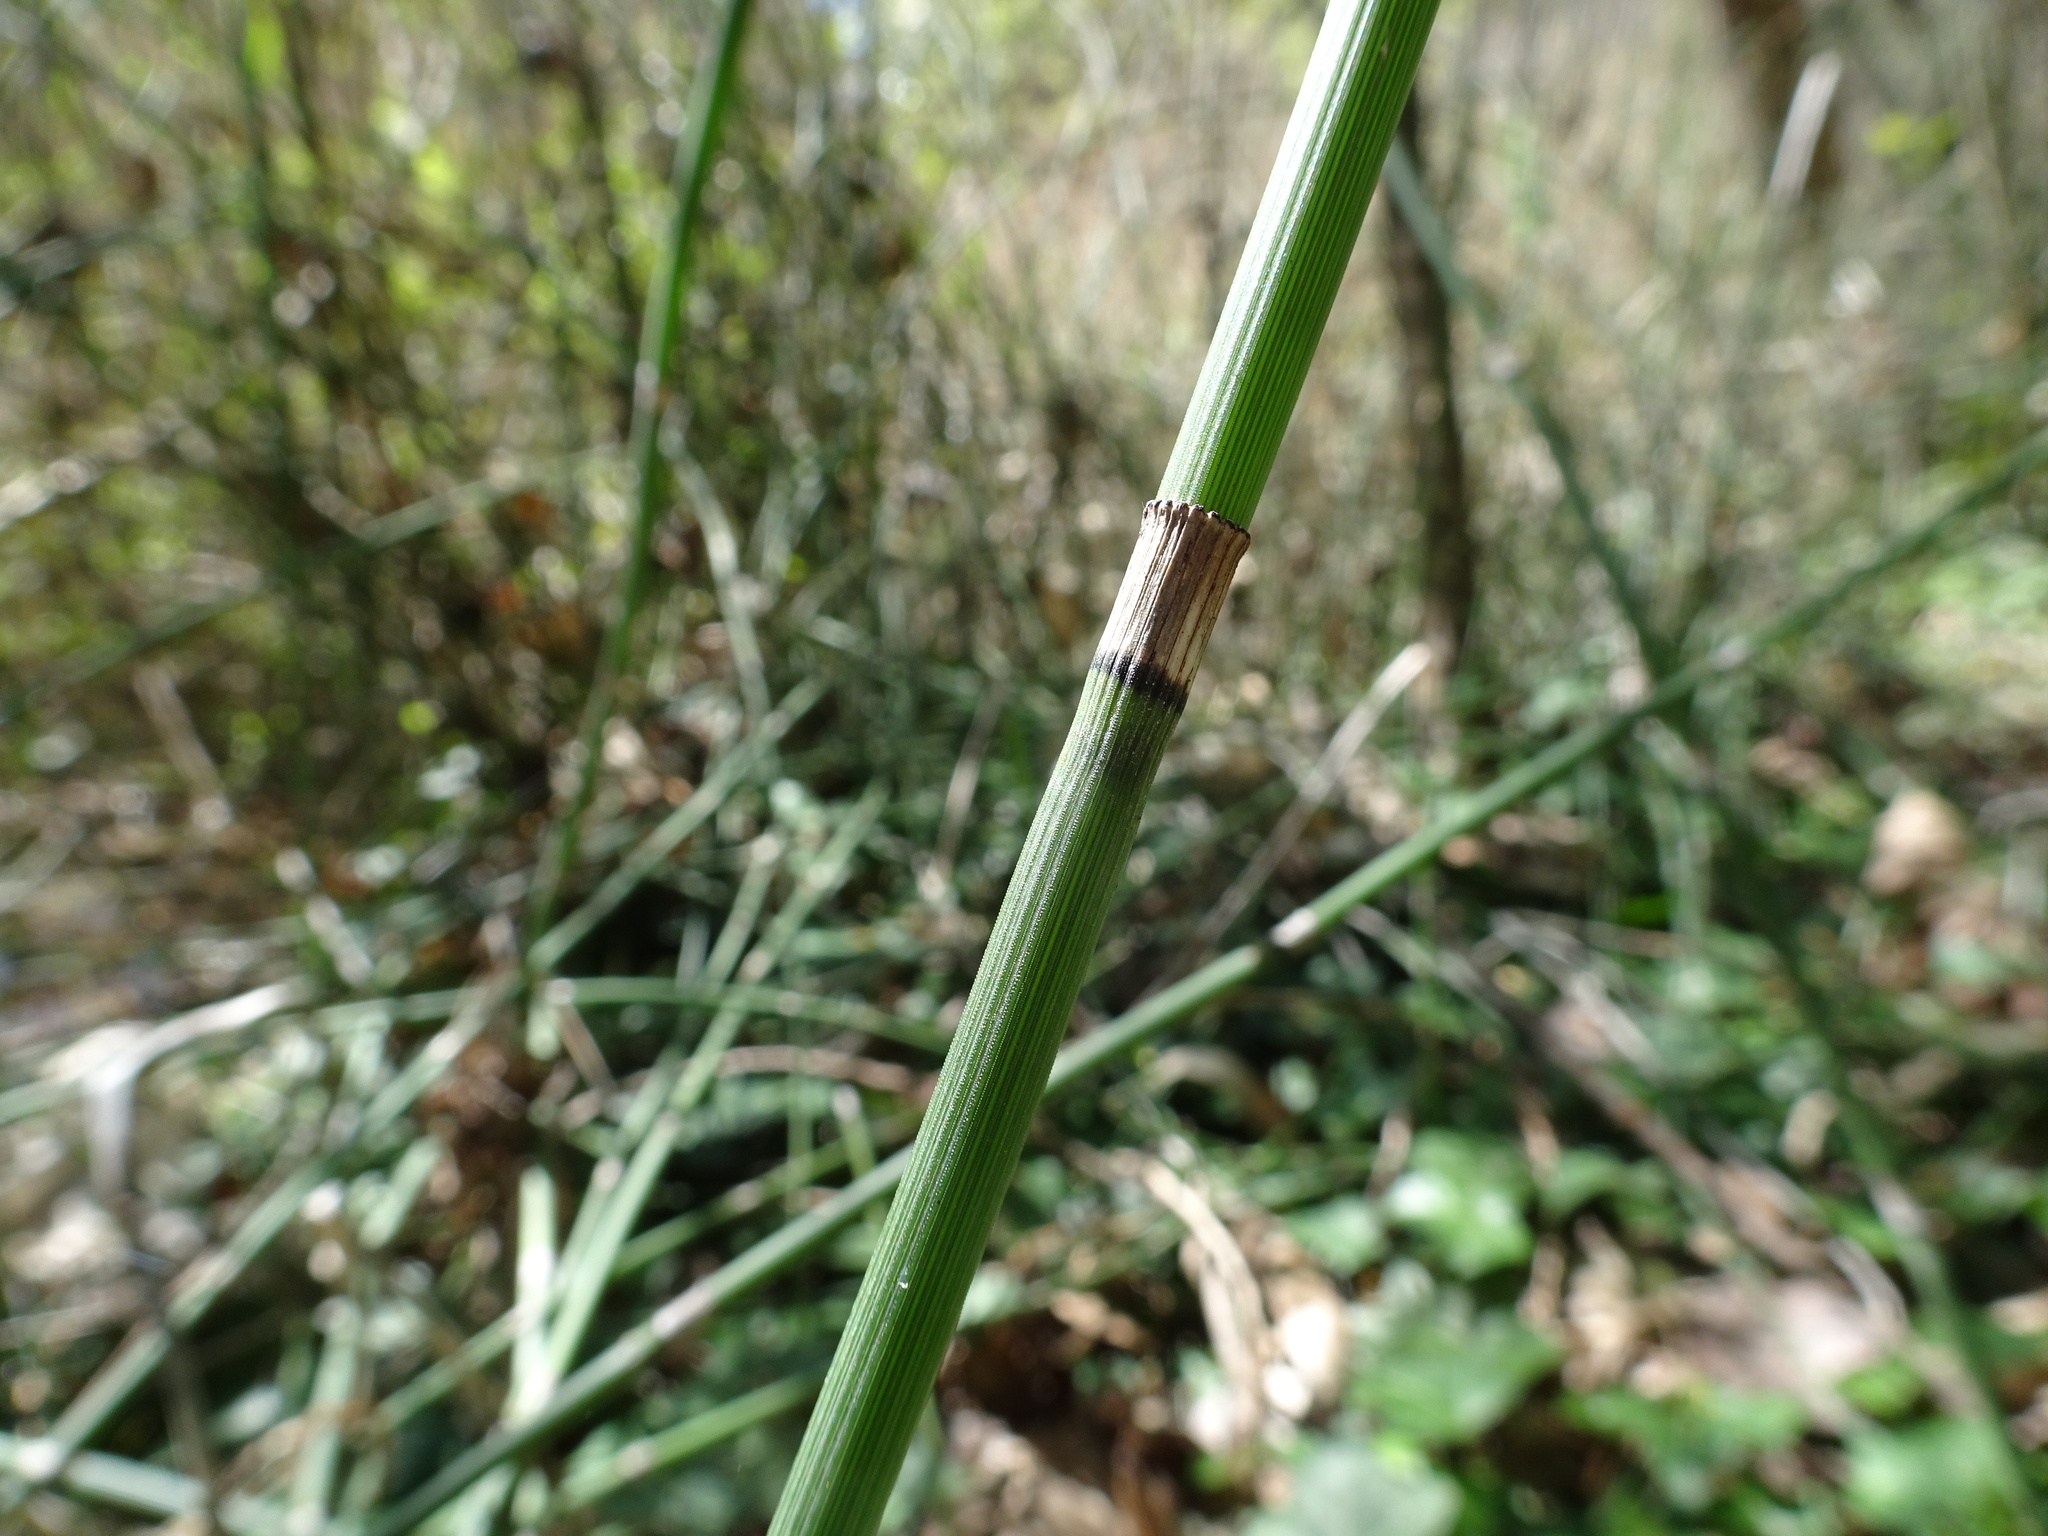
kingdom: Plantae
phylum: Tracheophyta
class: Polypodiopsida
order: Equisetales
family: Equisetaceae
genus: Equisetum
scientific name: Equisetum hyemale
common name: Rough horsetail
